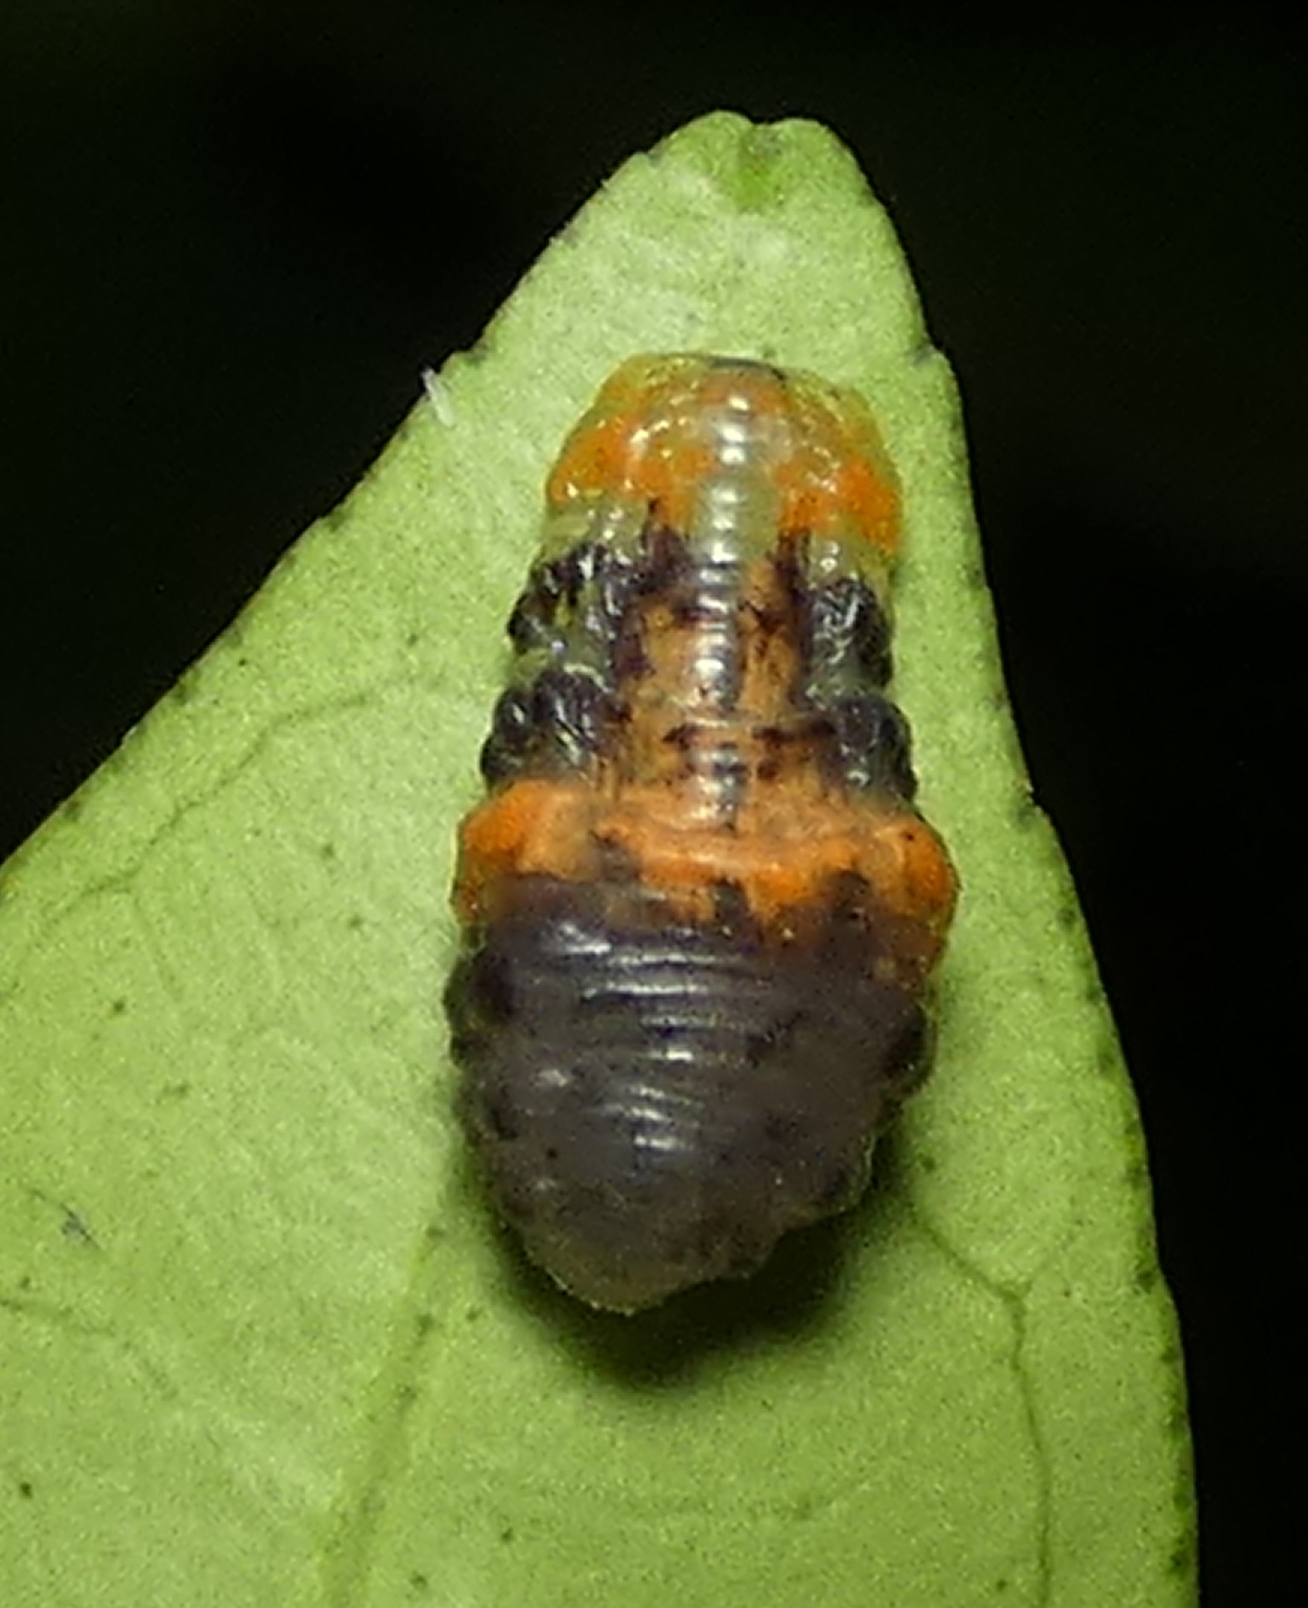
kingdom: Animalia
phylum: Arthropoda
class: Insecta
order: Diptera
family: Syrphidae
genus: Ocyptamus
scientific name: Ocyptamus gastrostactus
